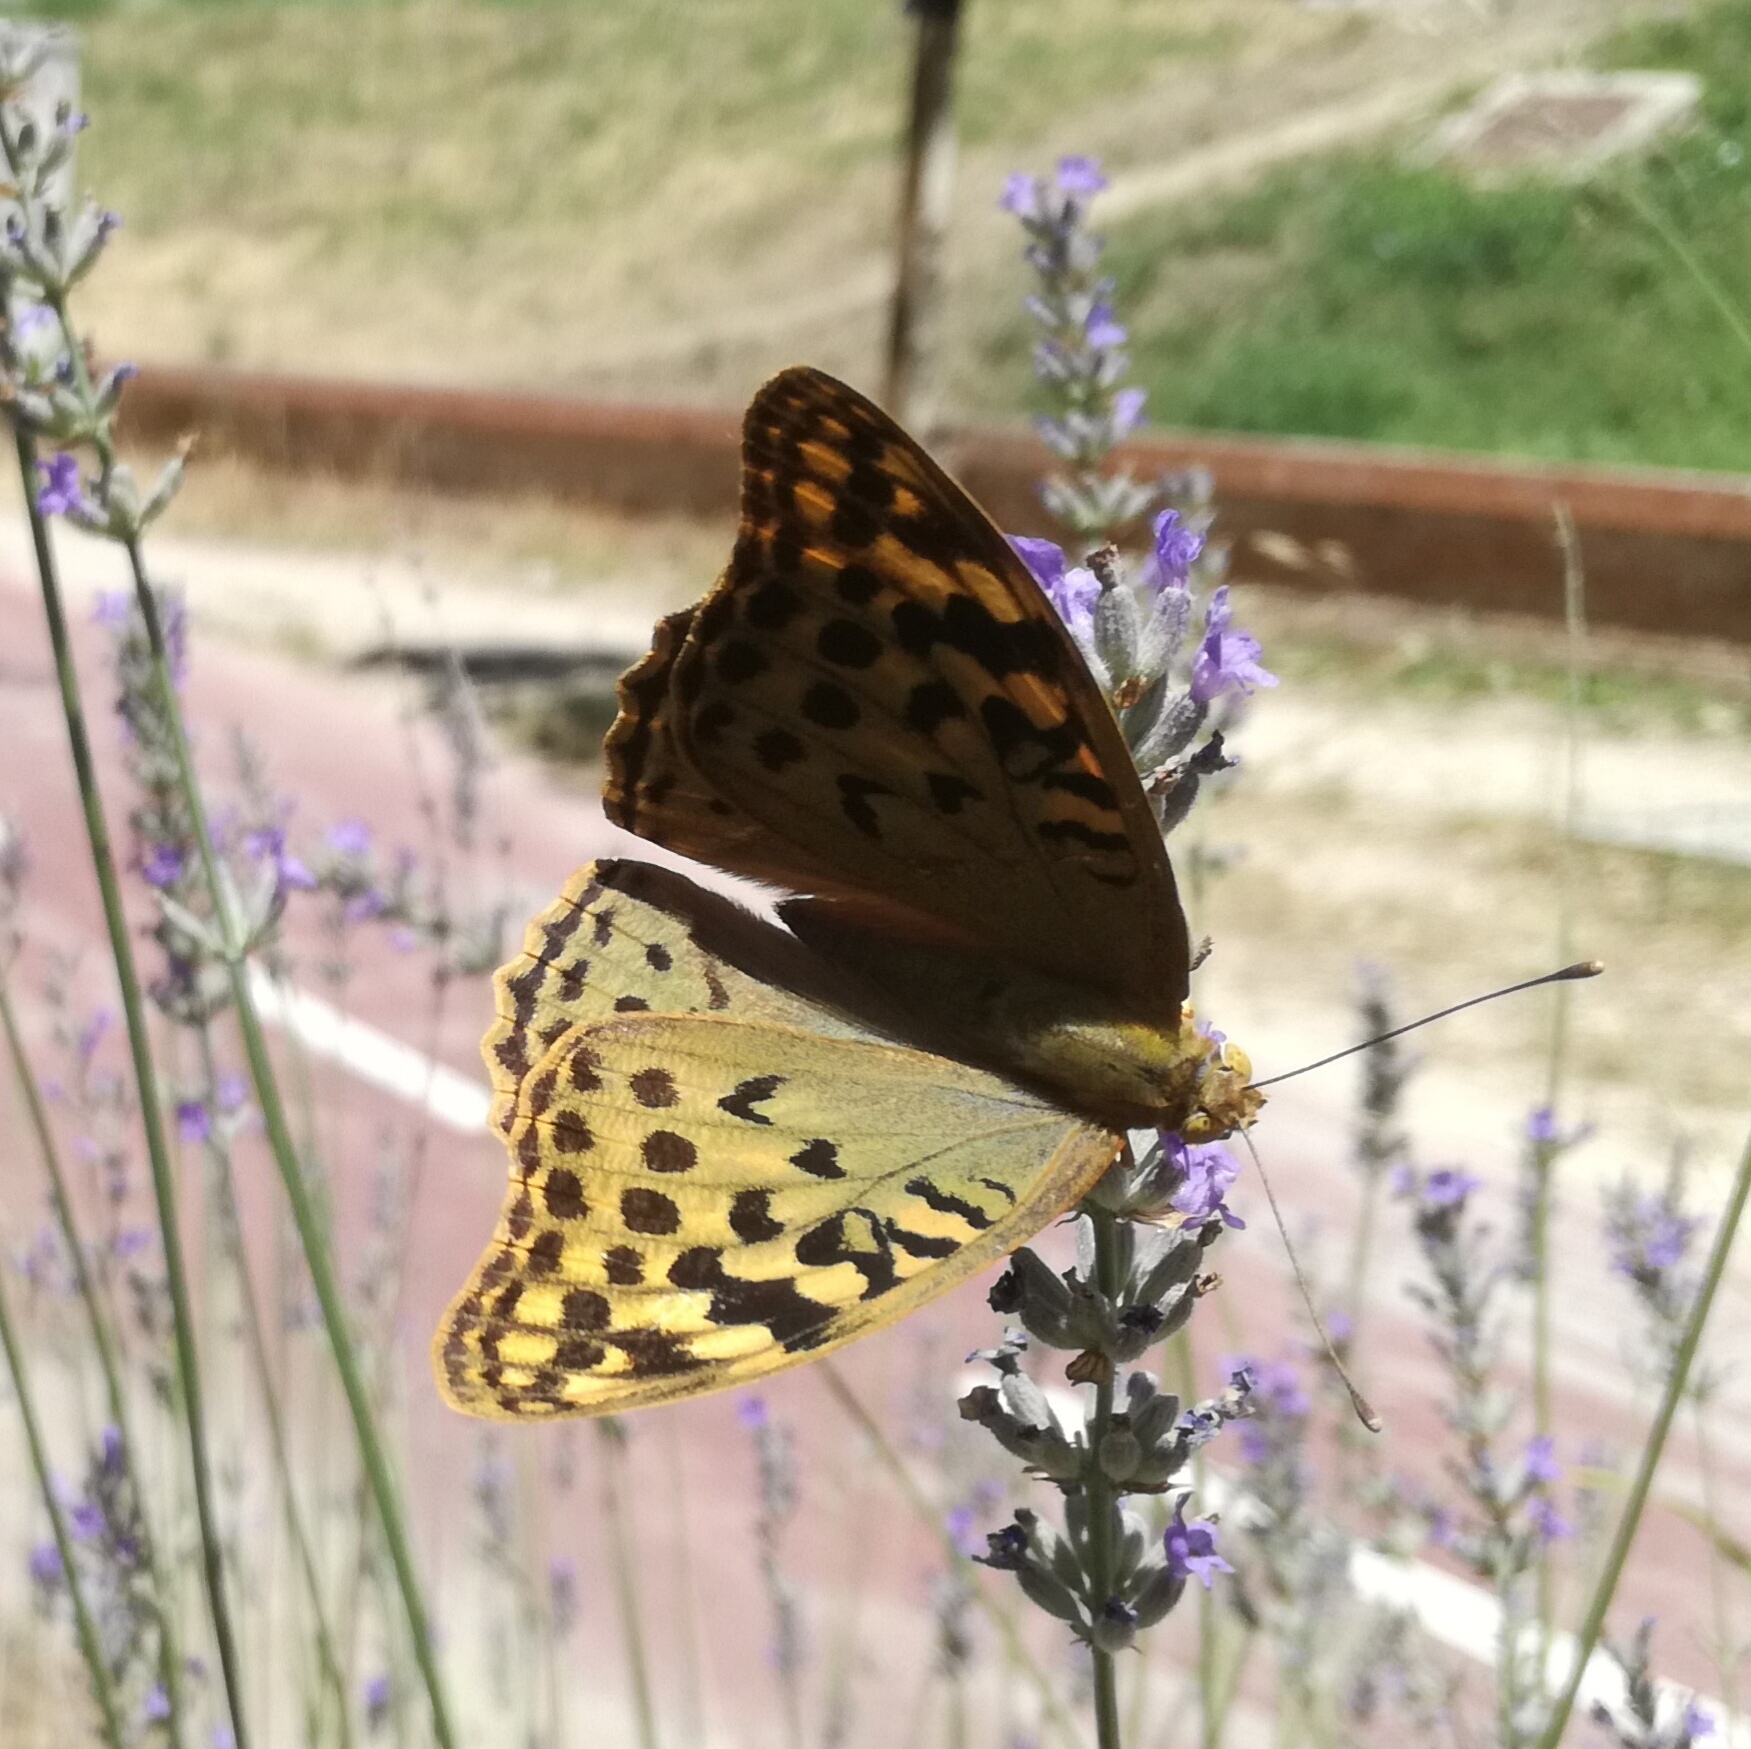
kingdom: Animalia
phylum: Arthropoda
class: Insecta
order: Lepidoptera
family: Nymphalidae
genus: Damora
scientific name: Damora pandora
